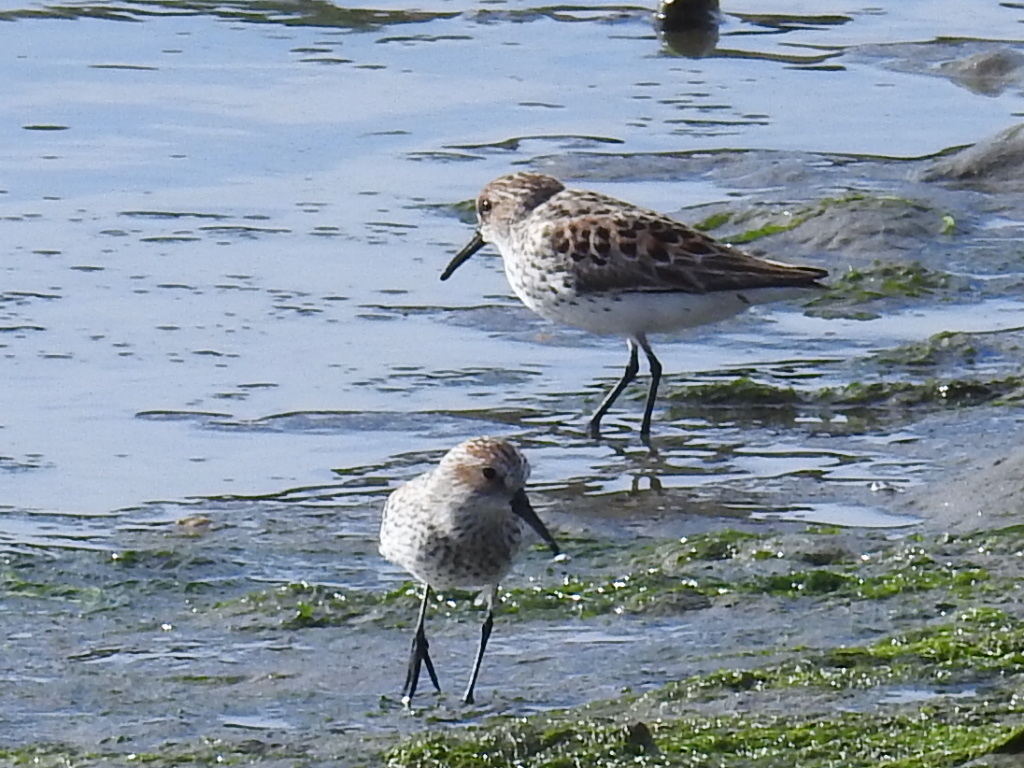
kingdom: Animalia
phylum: Chordata
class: Aves
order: Charadriiformes
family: Scolopacidae
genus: Calidris
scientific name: Calidris mauri
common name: Western sandpiper
